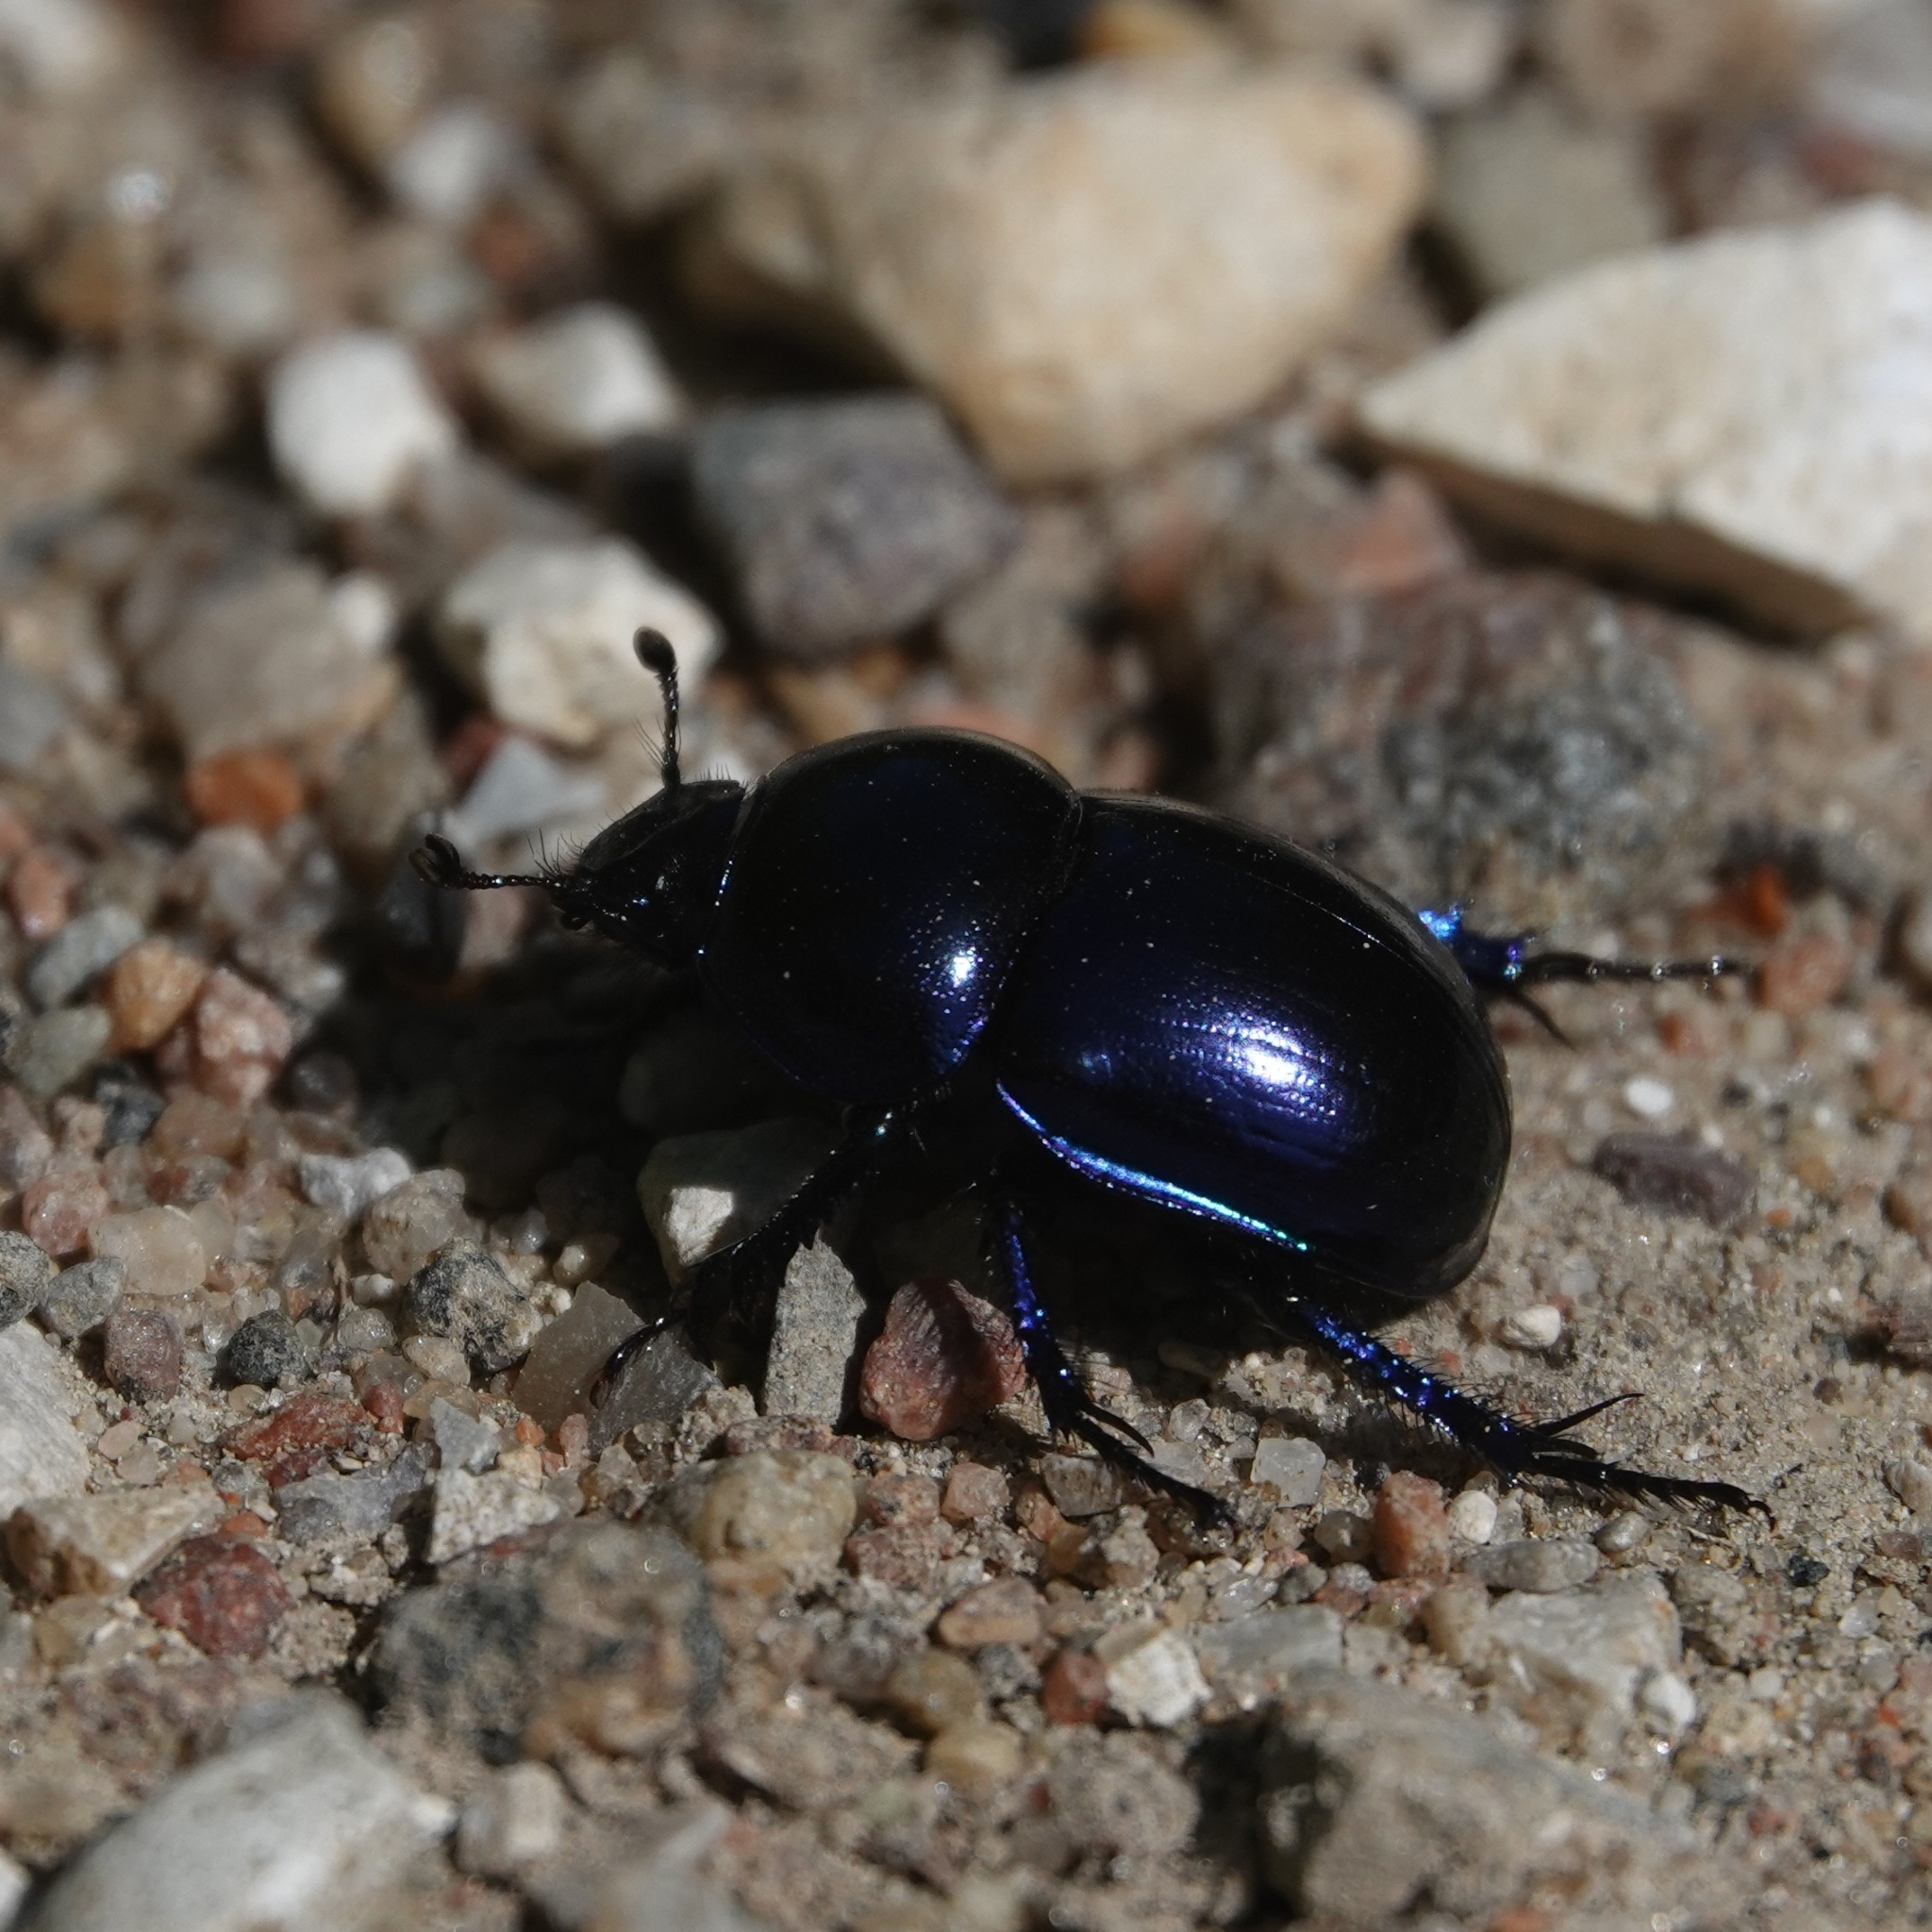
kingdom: Animalia
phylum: Arthropoda
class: Insecta
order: Coleoptera
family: Geotrupidae
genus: Trypocopris
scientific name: Trypocopris vernalis
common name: Spring dumbledor
